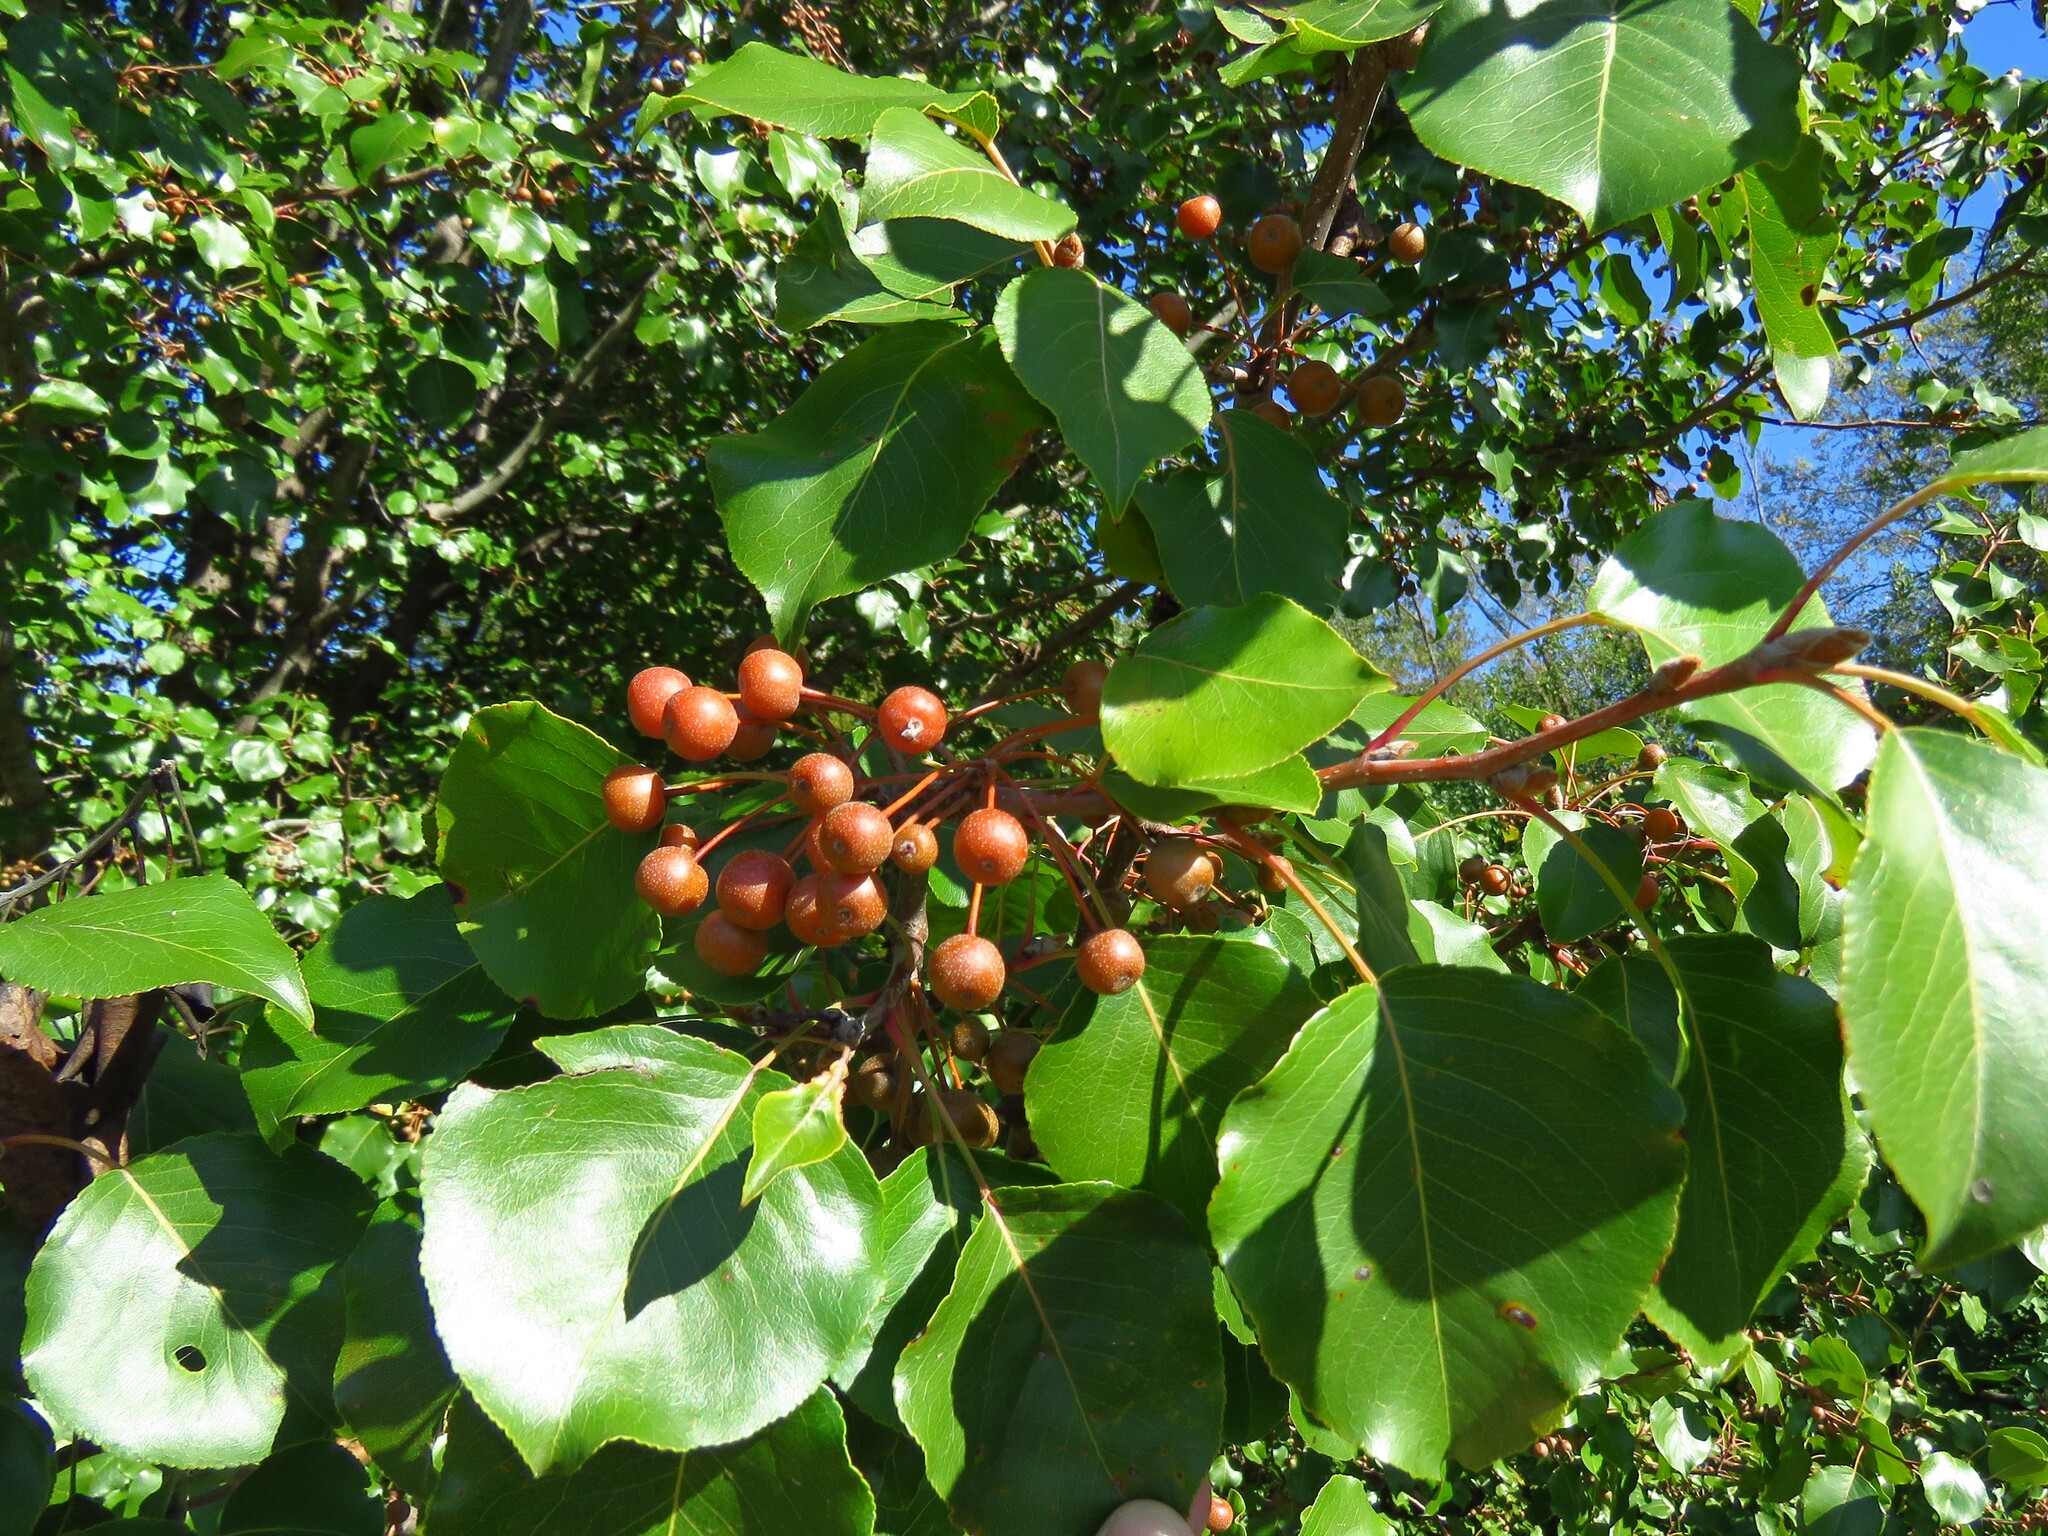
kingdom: Plantae
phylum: Tracheophyta
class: Magnoliopsida
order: Rosales
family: Rosaceae
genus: Pyrus
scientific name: Pyrus calleryana
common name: Callery pear
